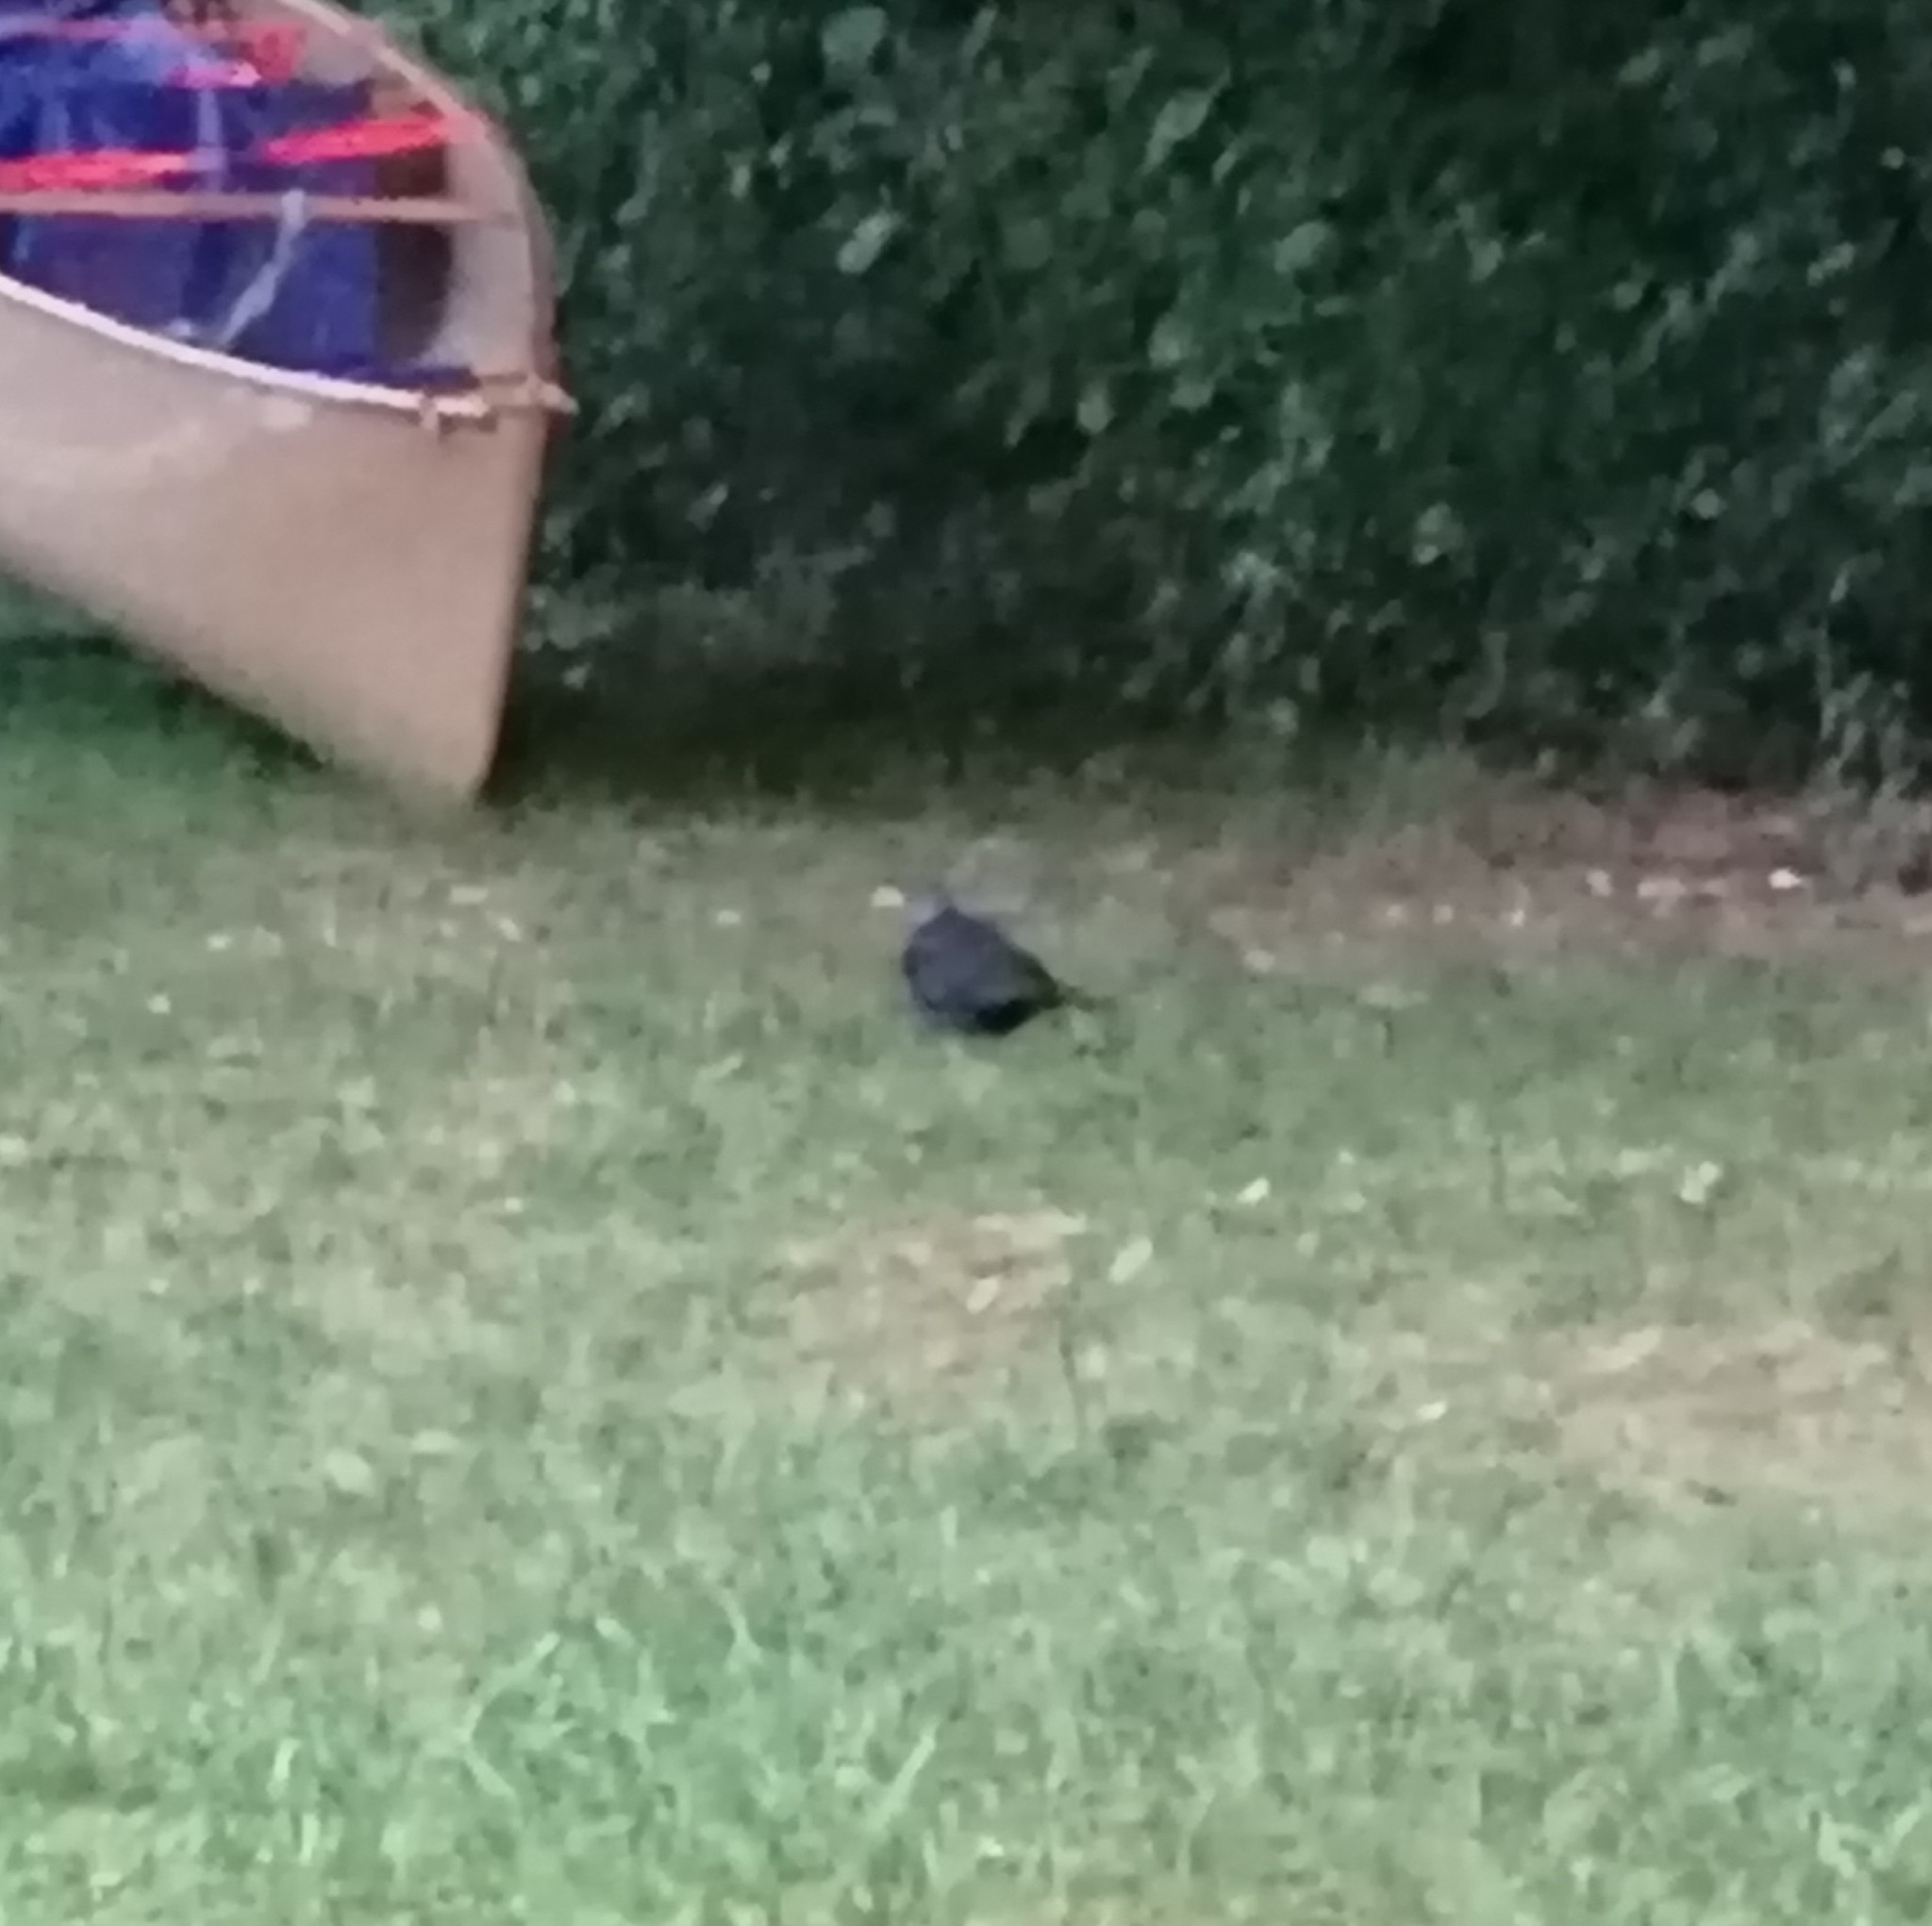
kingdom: Animalia
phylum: Chordata
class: Aves
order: Passeriformes
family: Turdidae
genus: Turdus
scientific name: Turdus merula
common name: Common blackbird
